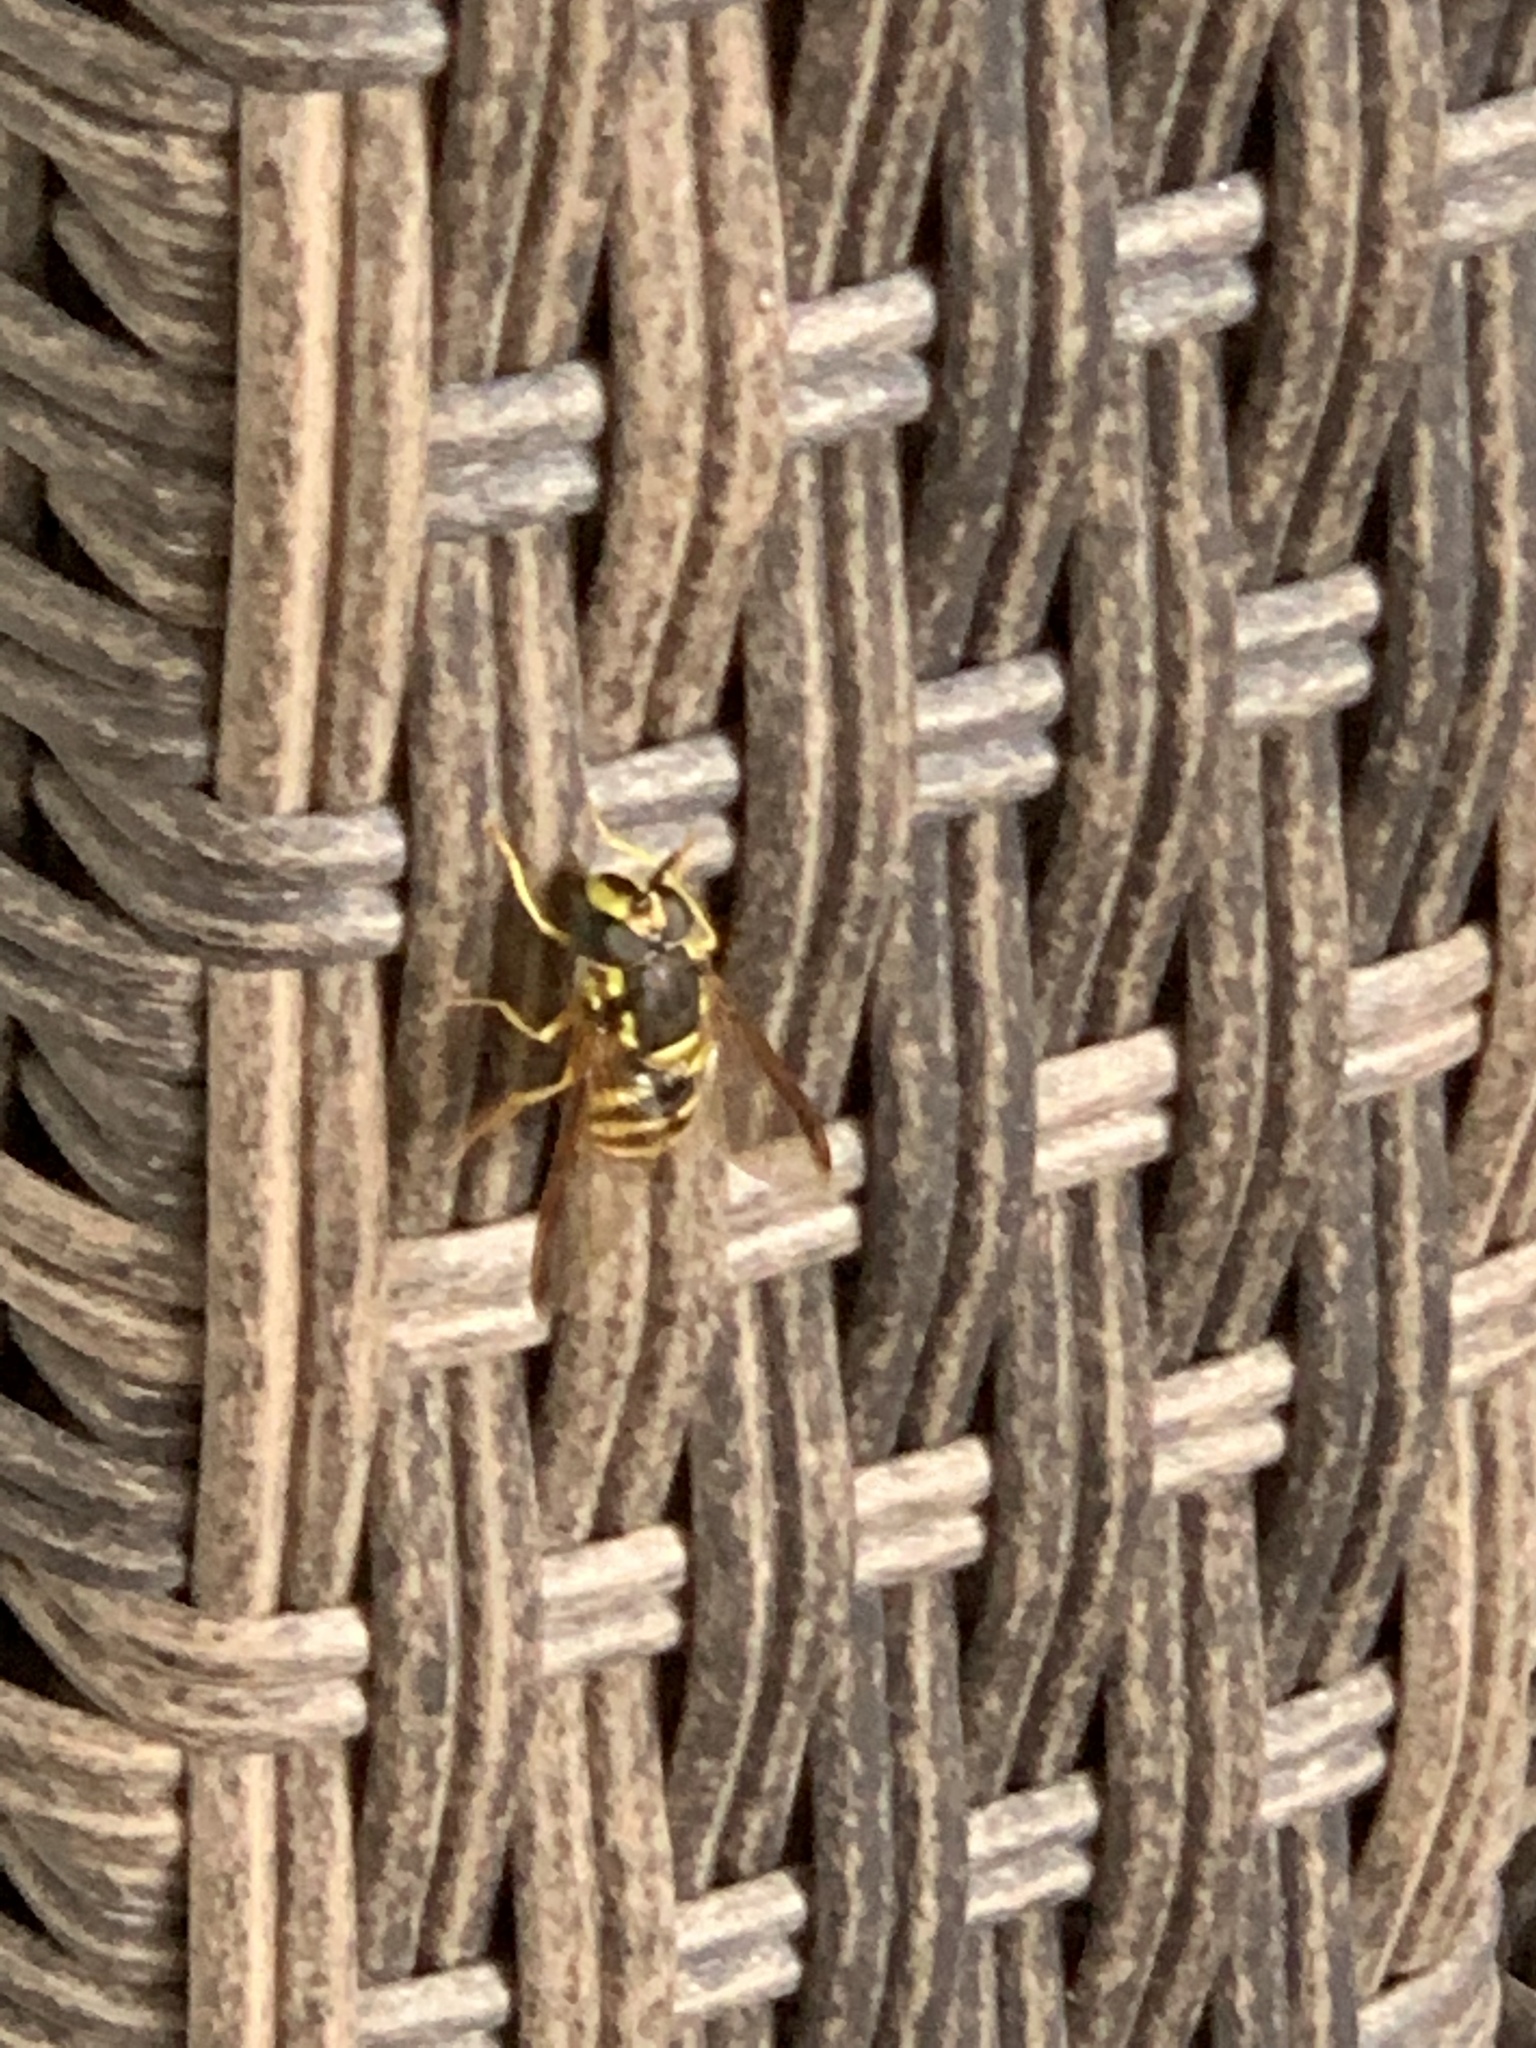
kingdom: Animalia
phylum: Arthropoda
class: Insecta
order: Diptera
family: Syrphidae
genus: Chrysotoxum
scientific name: Chrysotoxum
